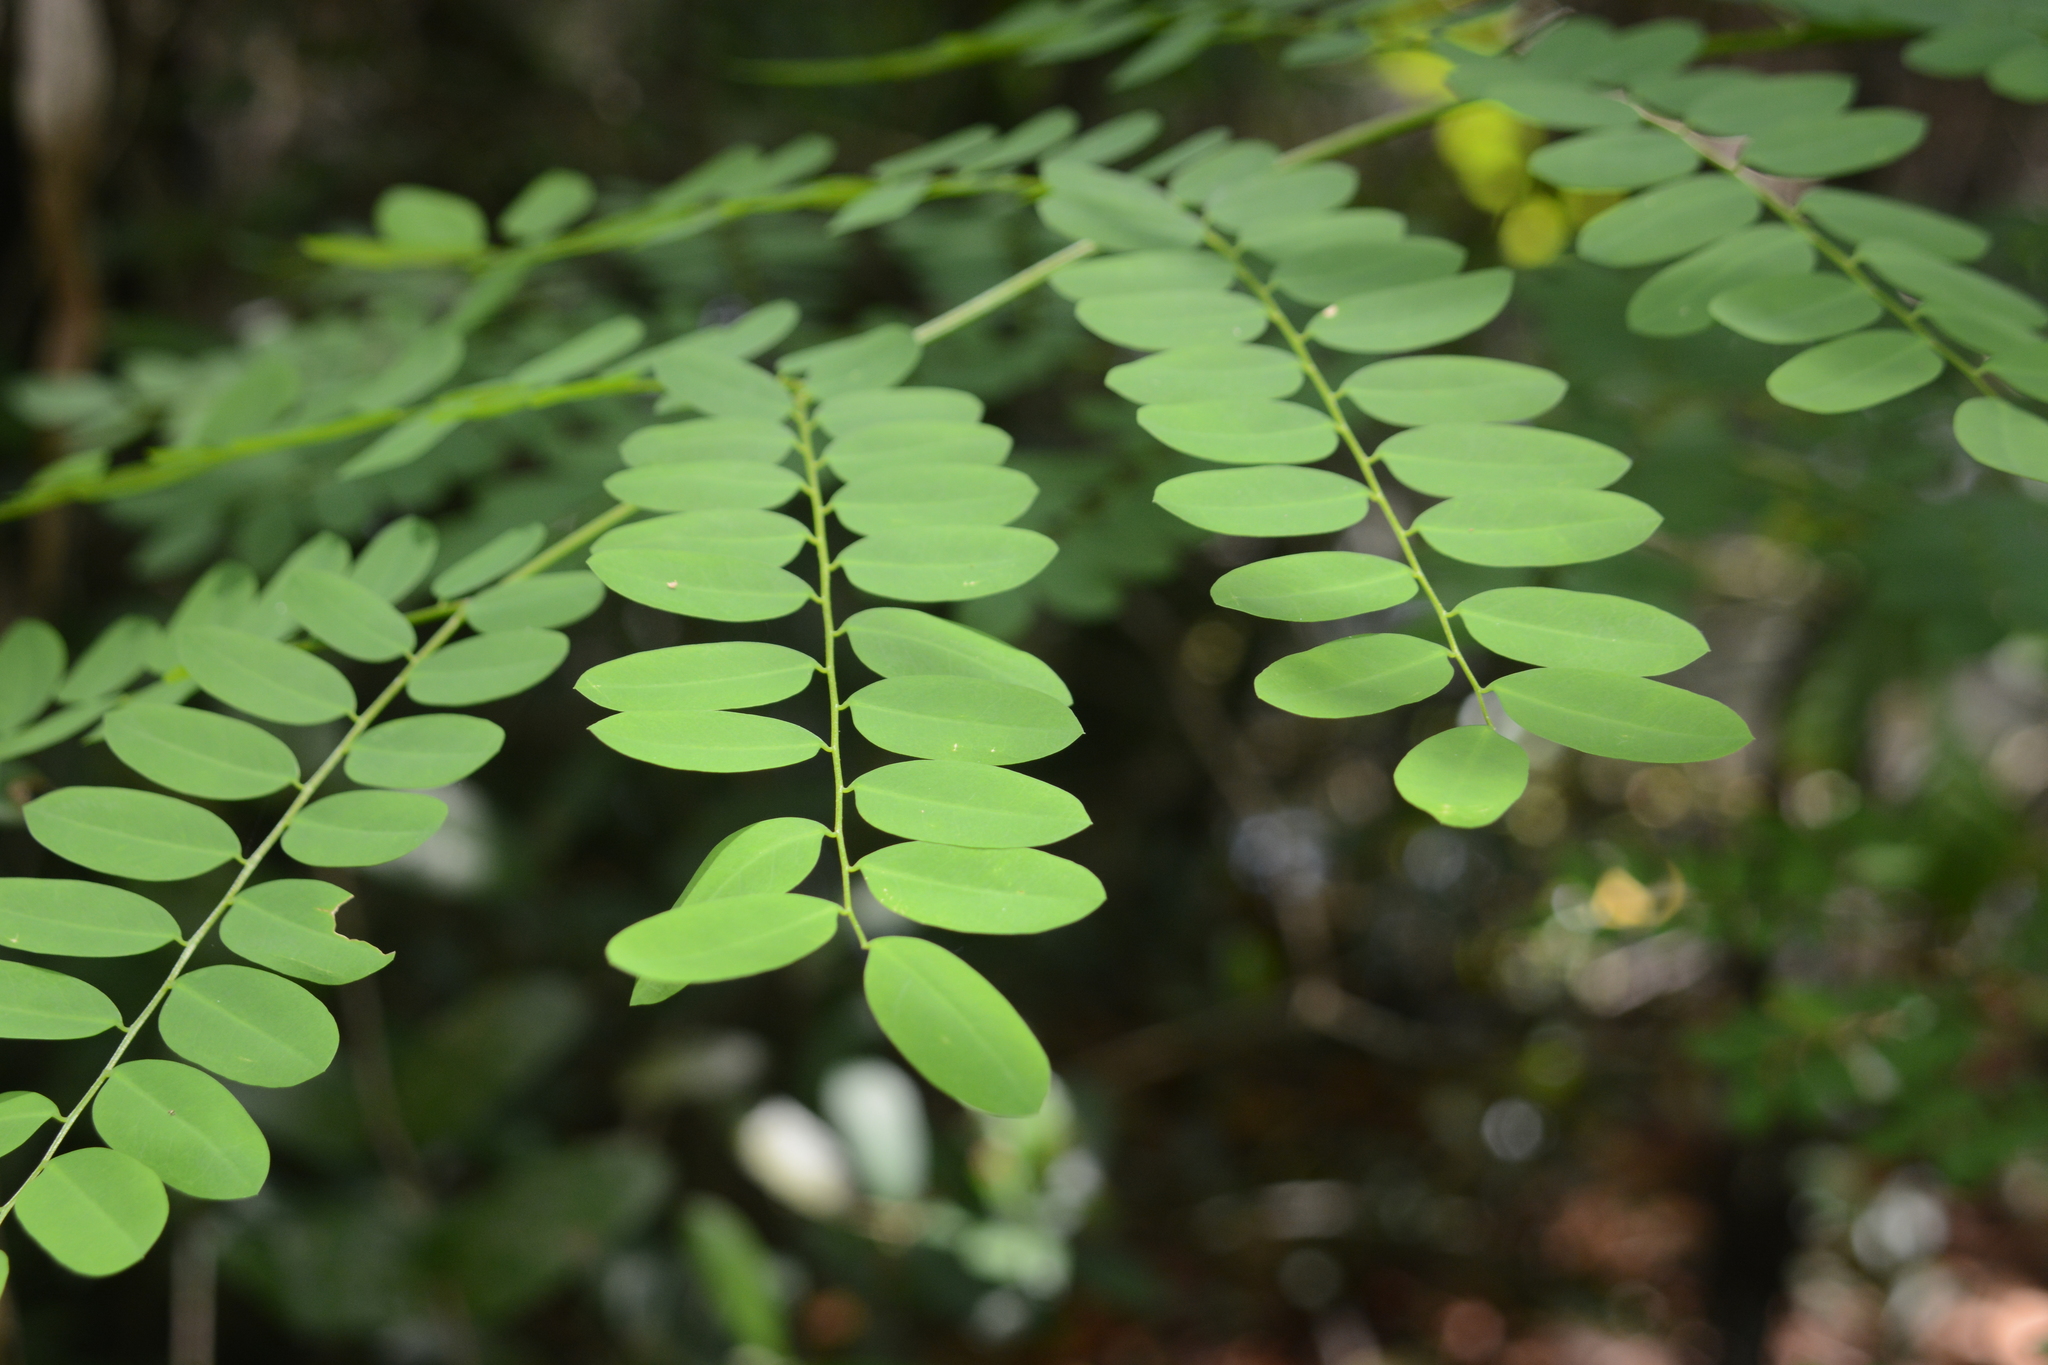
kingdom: Plantae
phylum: Tracheophyta
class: Magnoliopsida
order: Fabales
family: Fabaceae
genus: Abrus
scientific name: Abrus precatorius
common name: Rosarypea
